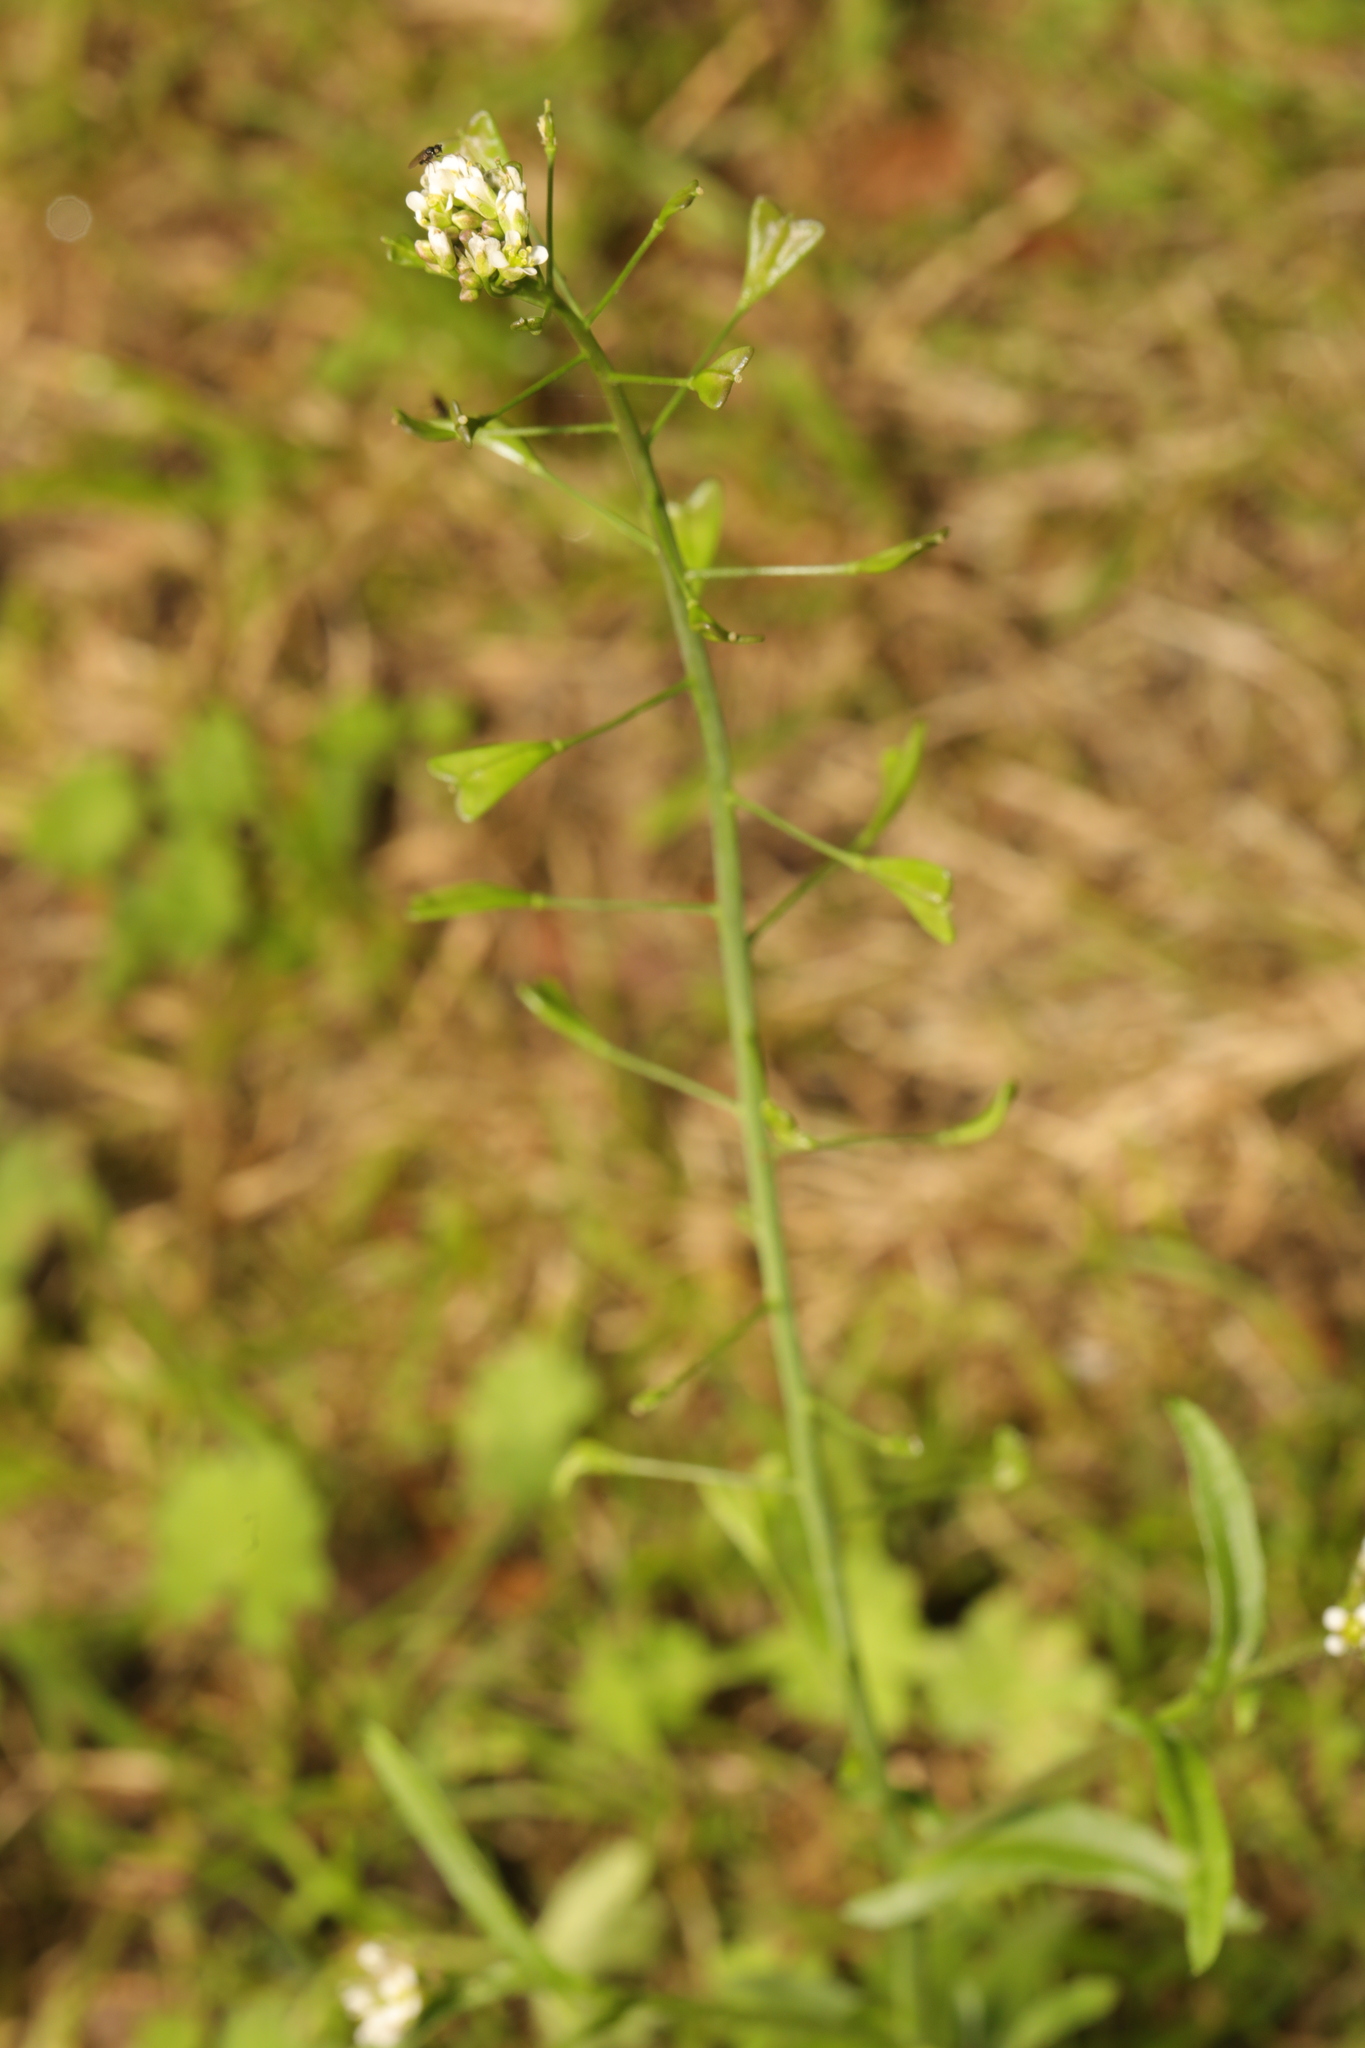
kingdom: Plantae
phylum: Tracheophyta
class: Magnoliopsida
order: Brassicales
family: Brassicaceae
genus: Capsella
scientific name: Capsella bursa-pastoris
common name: Shepherd's purse
